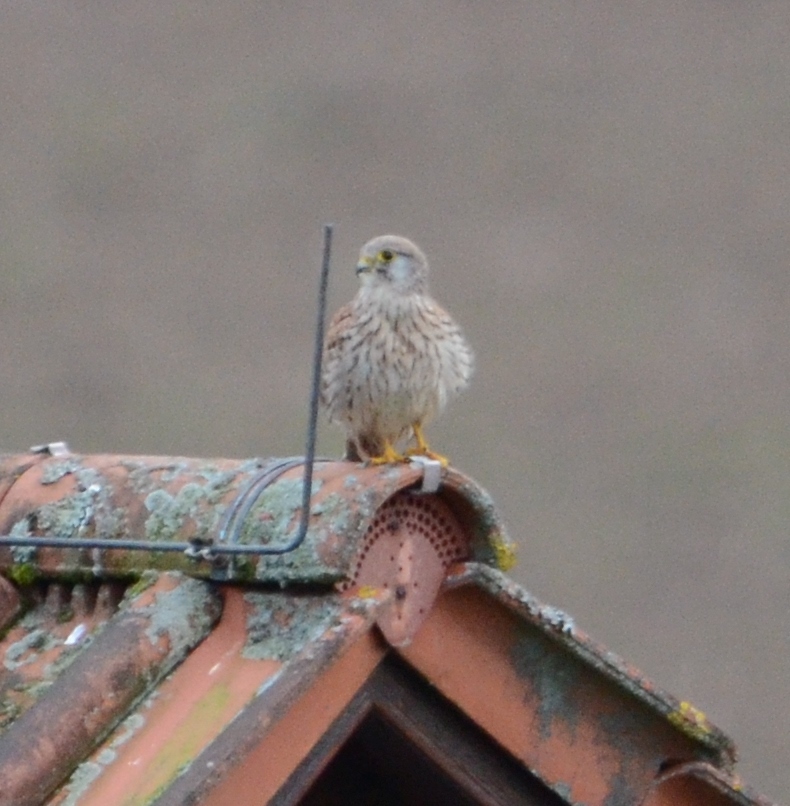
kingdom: Animalia
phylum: Chordata
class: Aves
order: Falconiformes
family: Falconidae
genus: Falco
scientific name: Falco tinnunculus
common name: Common kestrel
